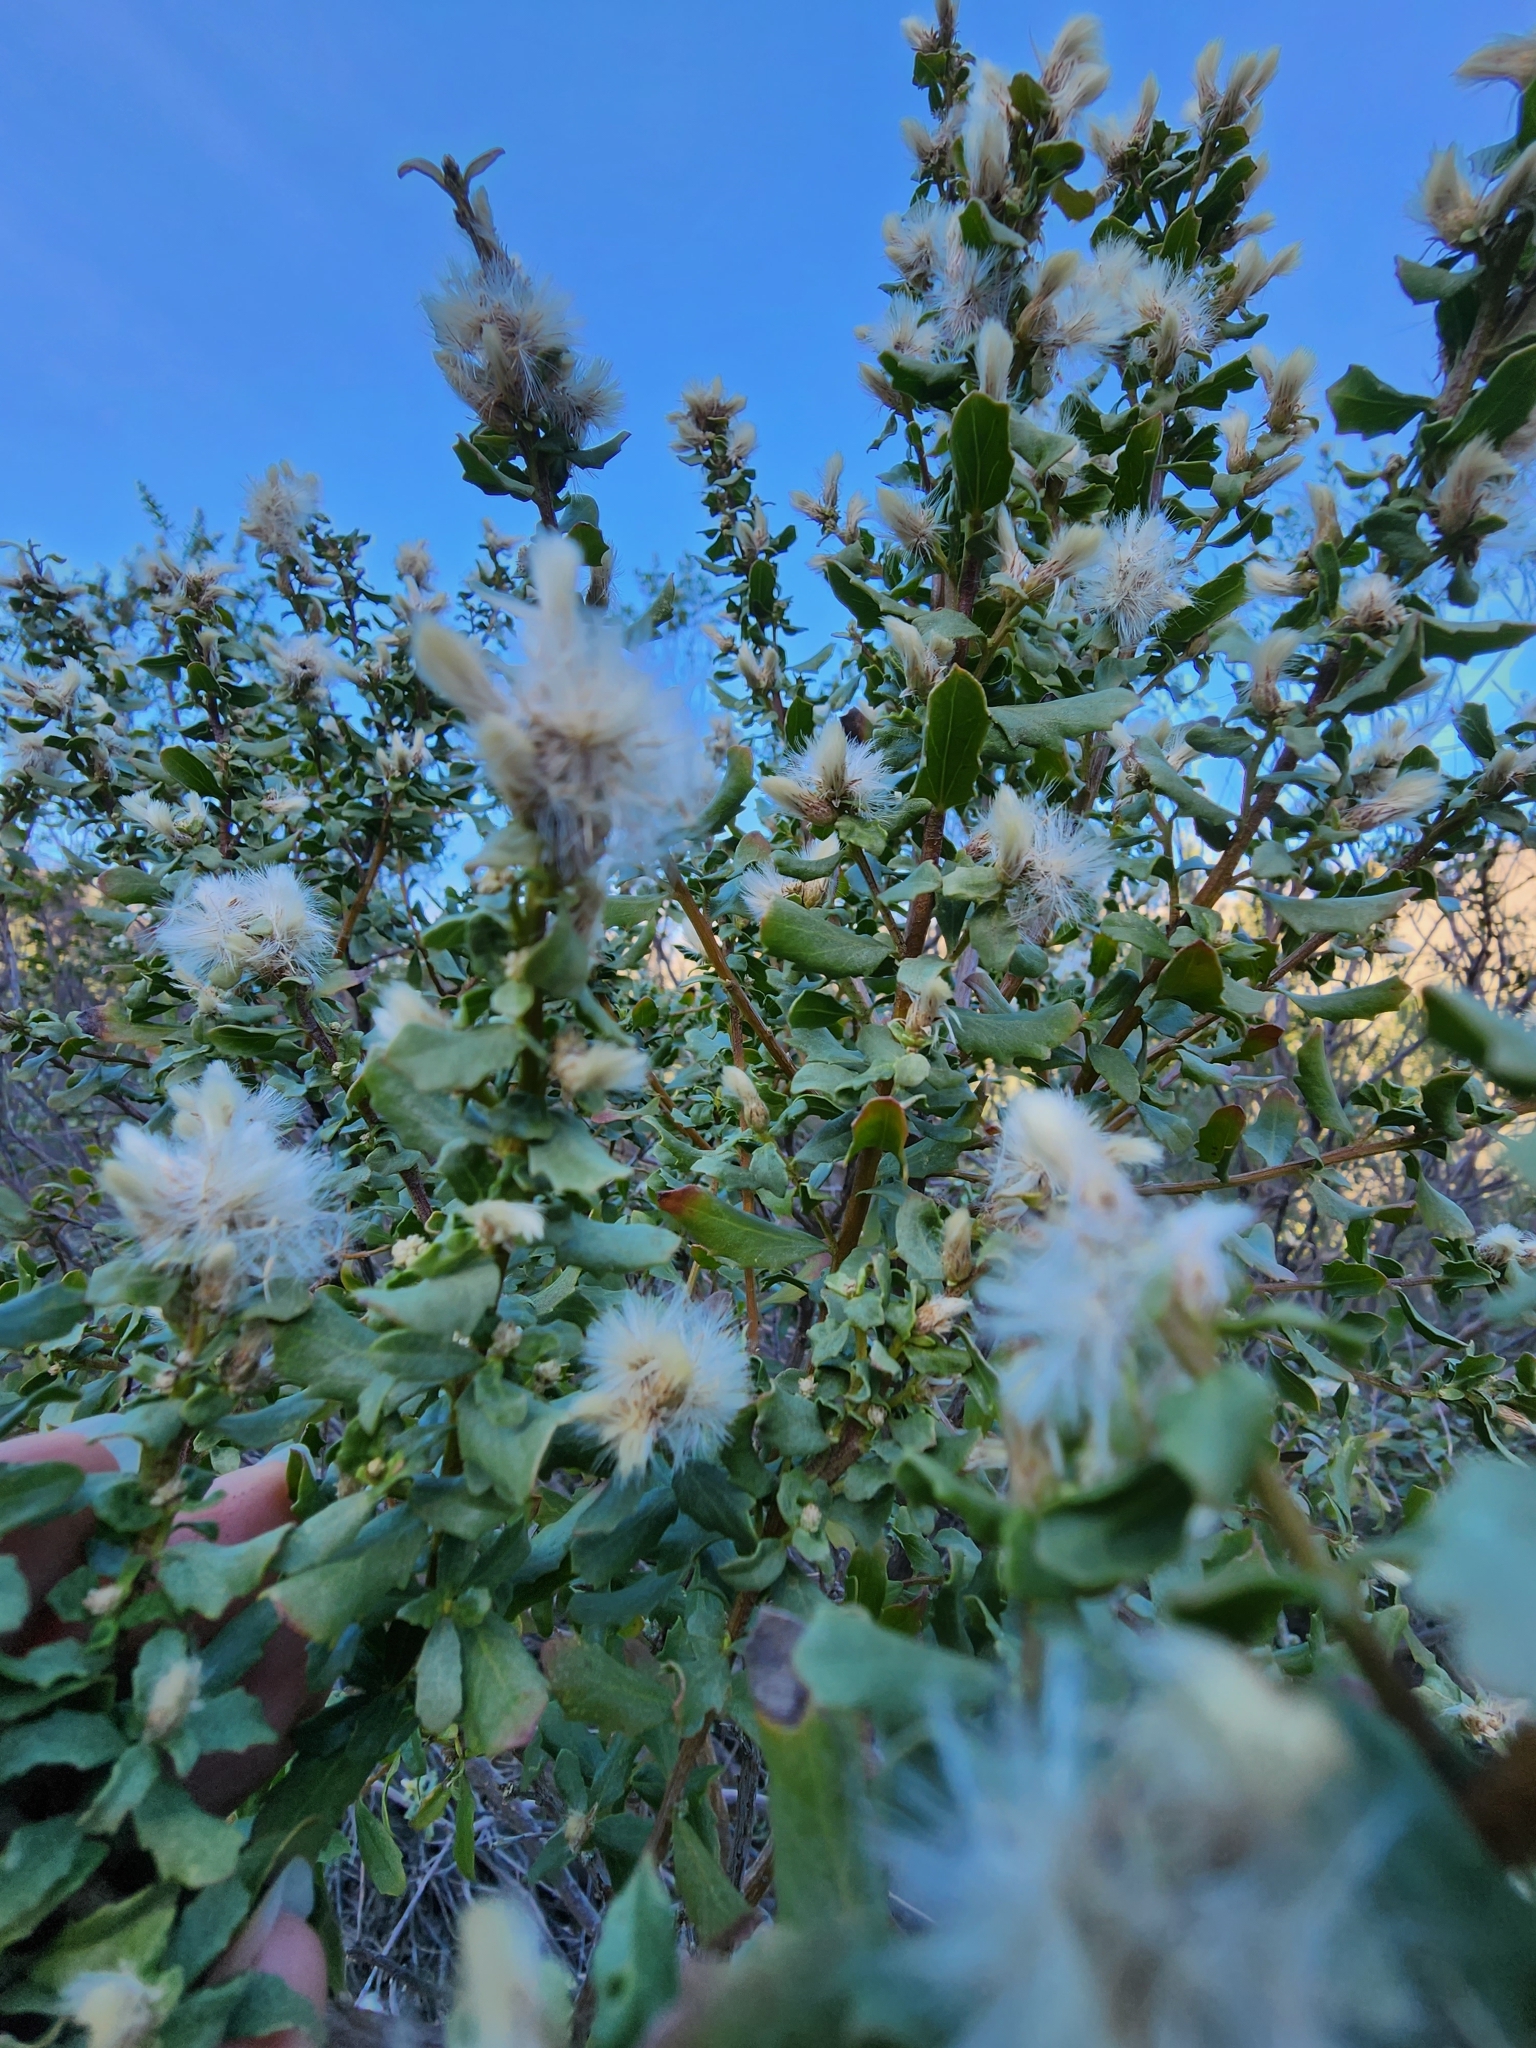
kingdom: Plantae
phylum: Tracheophyta
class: Magnoliopsida
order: Asterales
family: Asteraceae
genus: Baccharis
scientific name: Baccharis pilularis
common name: Coyotebrush
